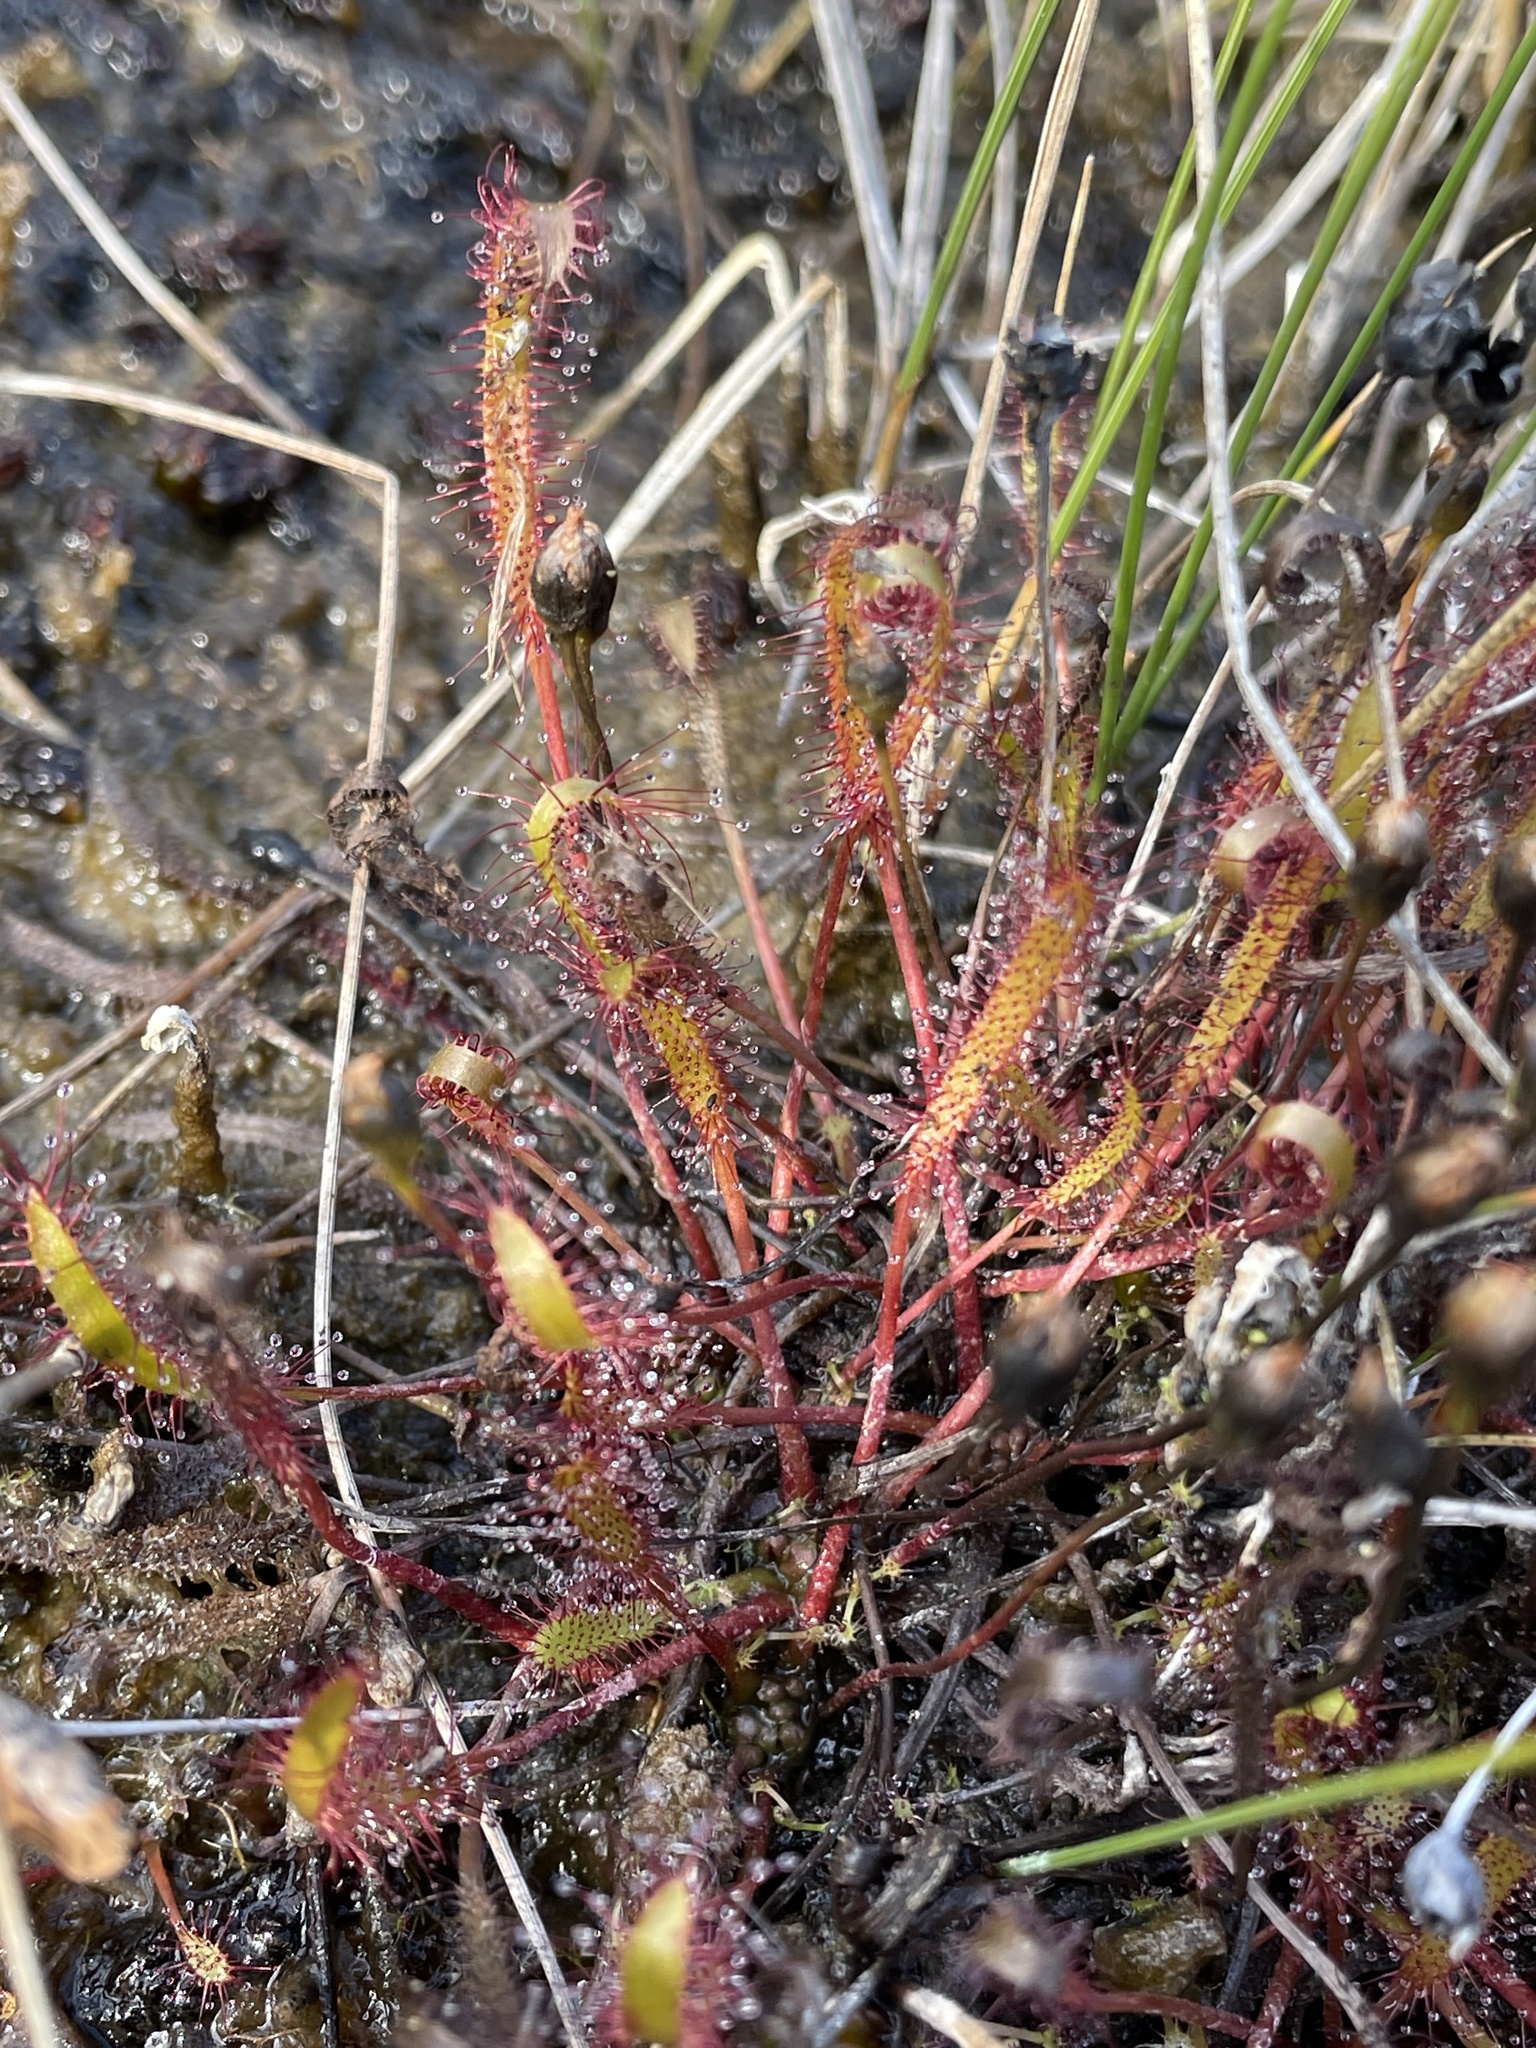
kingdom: Plantae
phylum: Tracheophyta
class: Magnoliopsida
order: Caryophyllales
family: Droseraceae
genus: Drosera
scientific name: Drosera linearis
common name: Linear-leaved sundew
